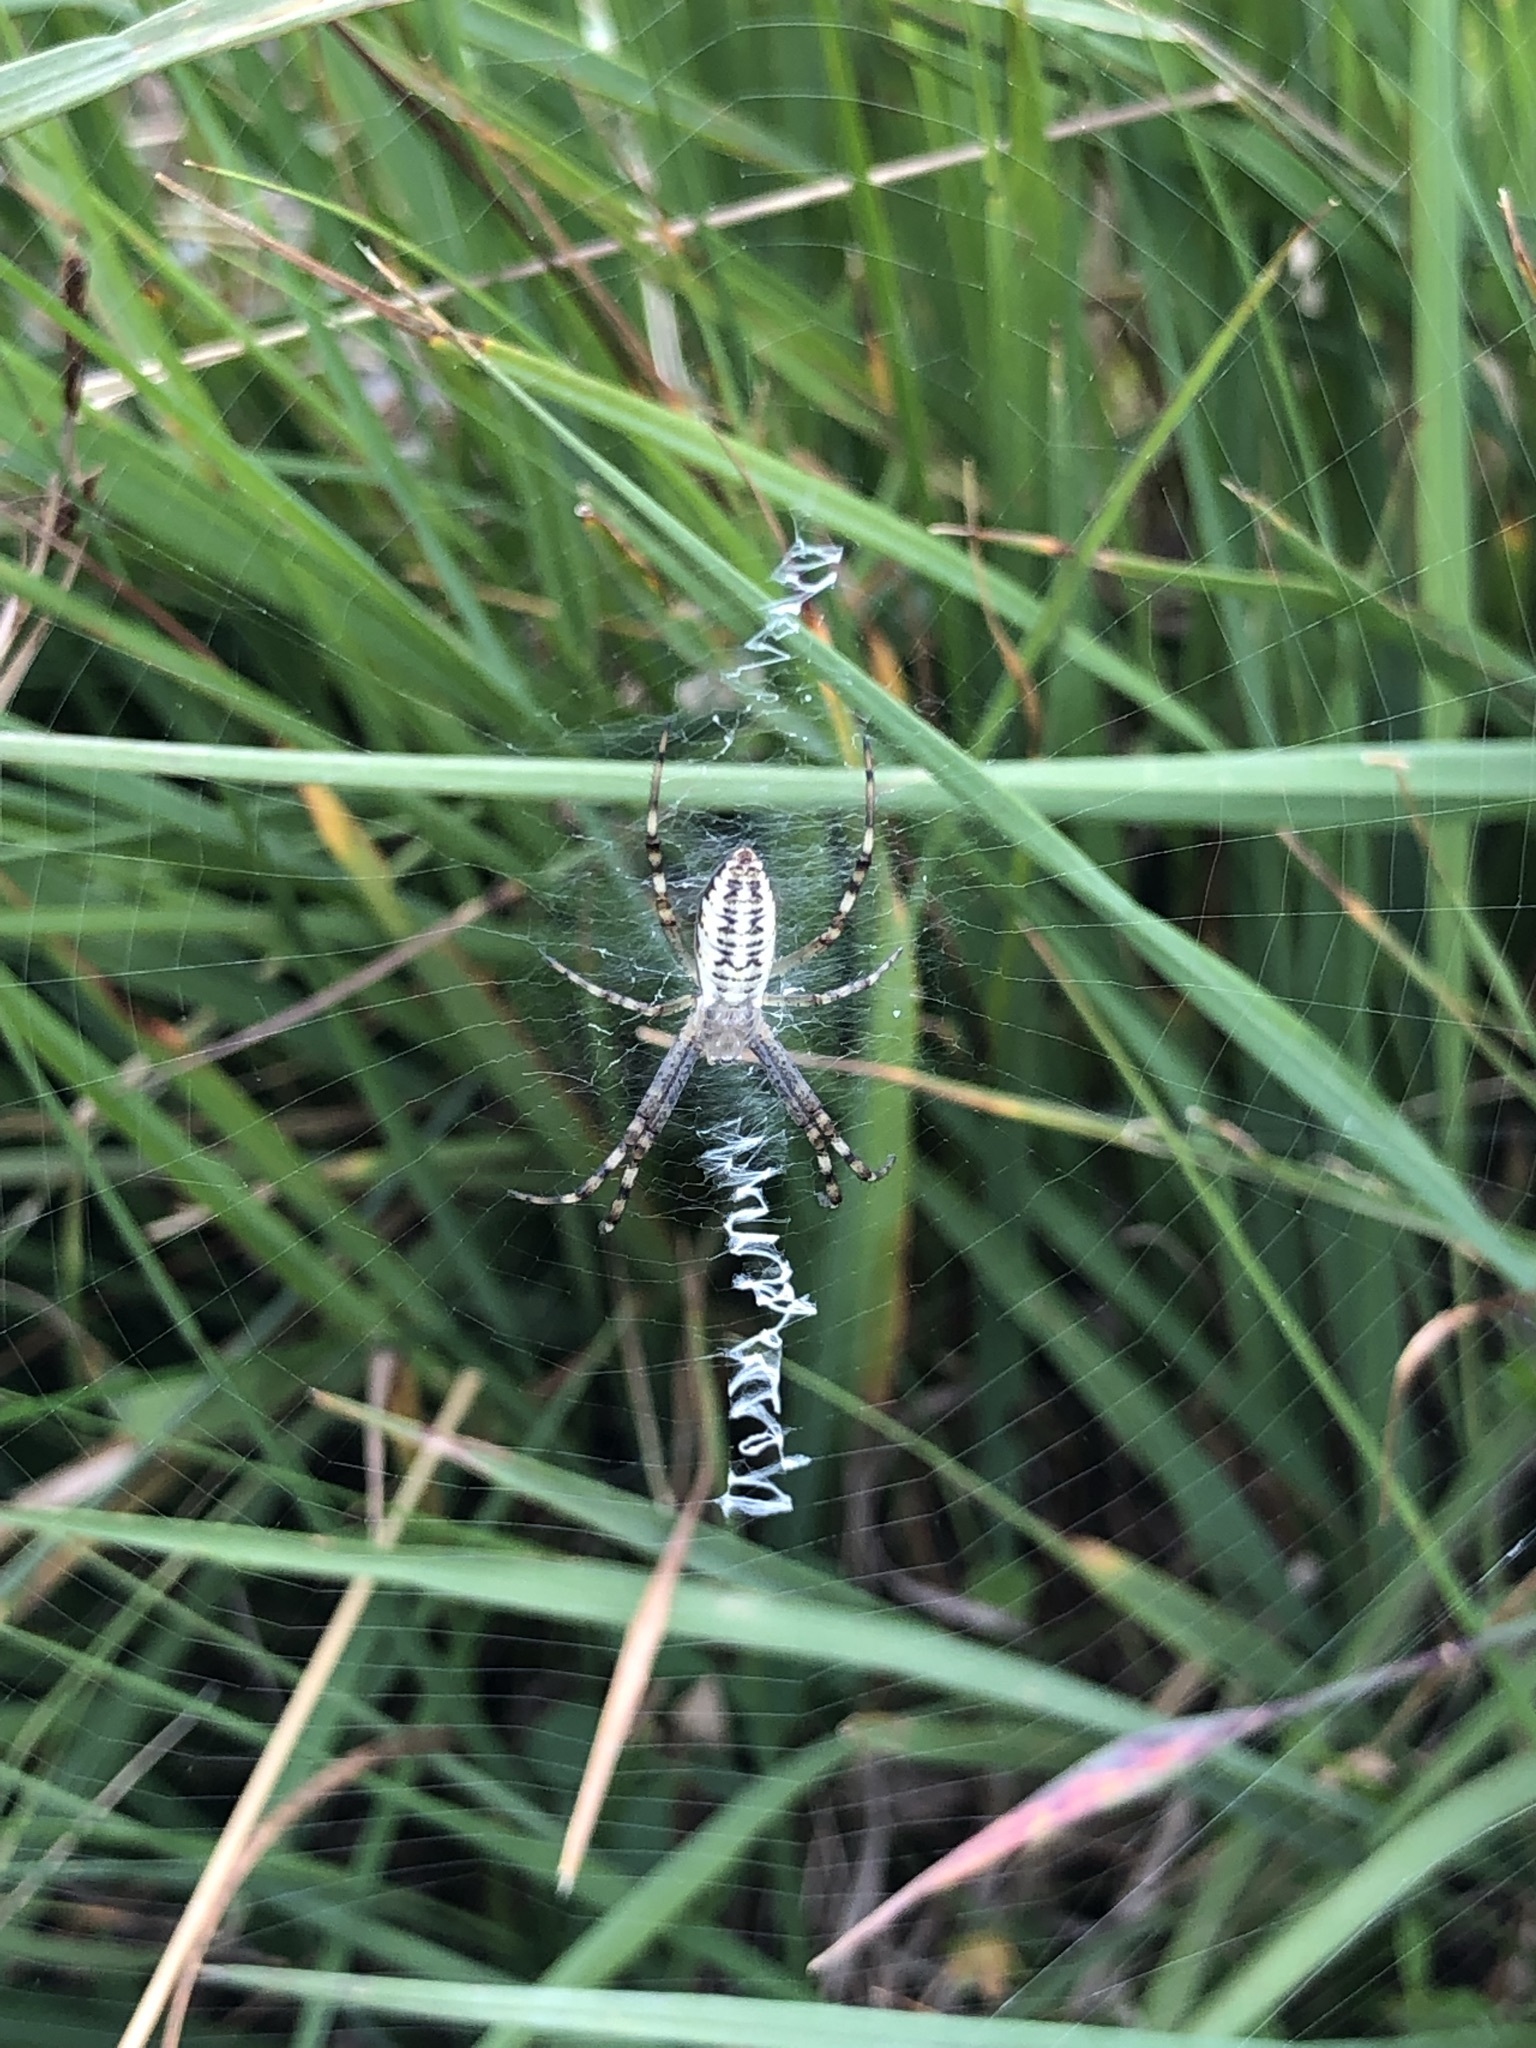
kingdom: Animalia
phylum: Arthropoda
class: Arachnida
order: Araneae
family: Araneidae
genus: Argiope
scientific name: Argiope bruennichi
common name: Wasp spider
